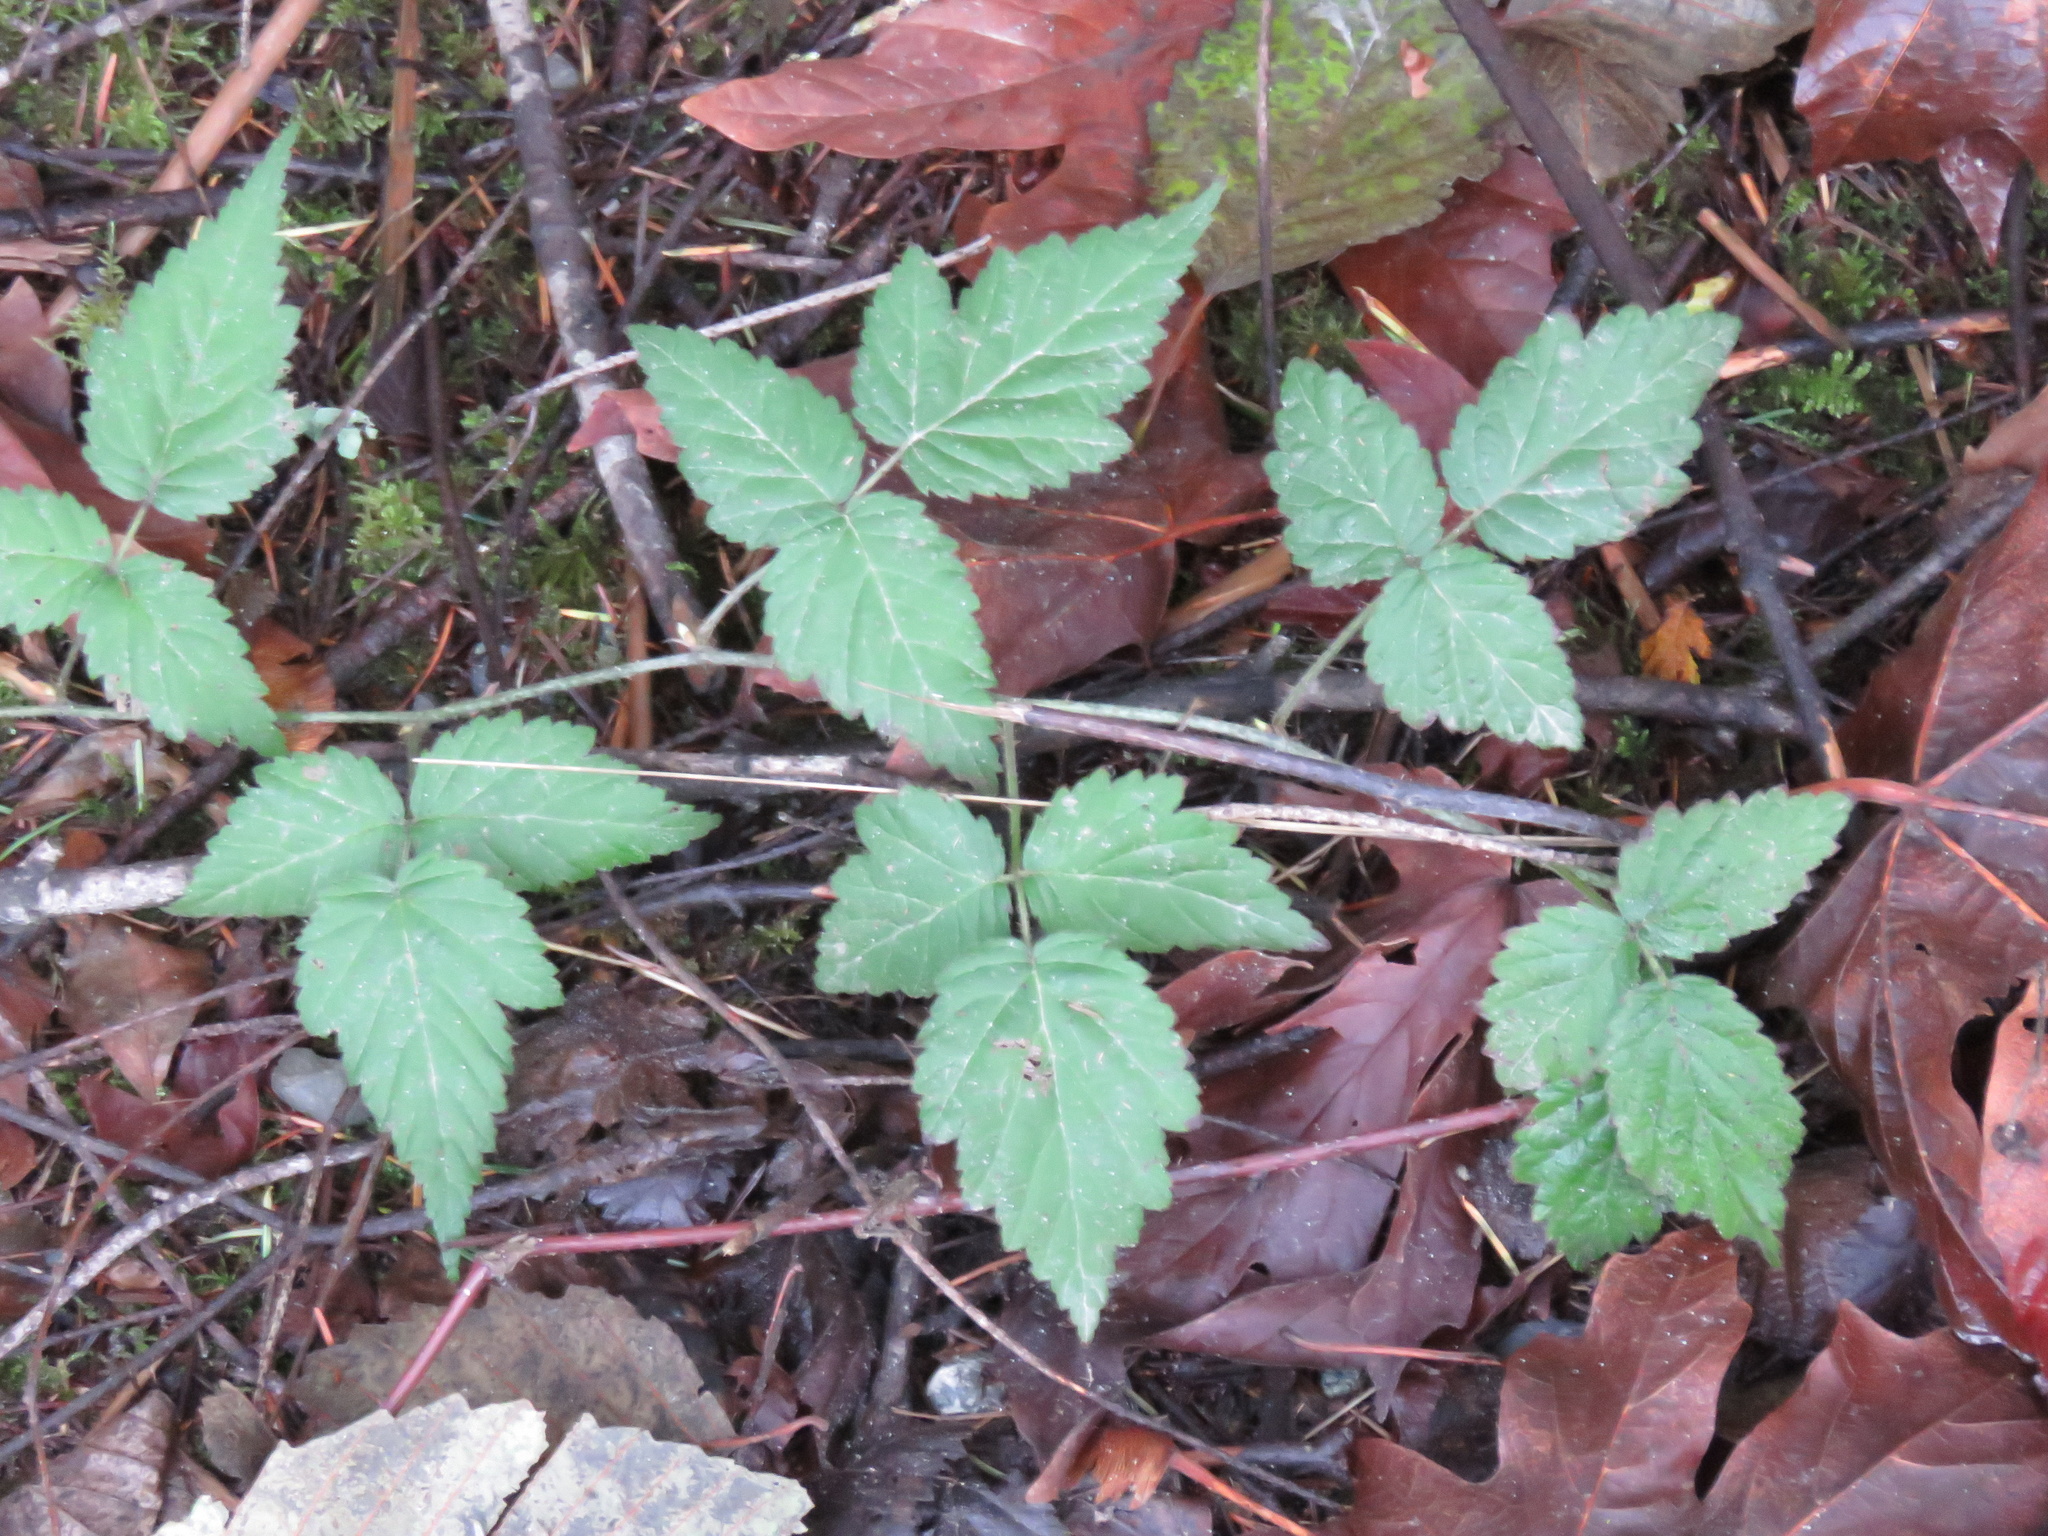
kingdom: Plantae
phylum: Tracheophyta
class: Magnoliopsida
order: Rosales
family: Rosaceae
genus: Rubus
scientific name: Rubus ursinus
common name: Pacific blackberry
